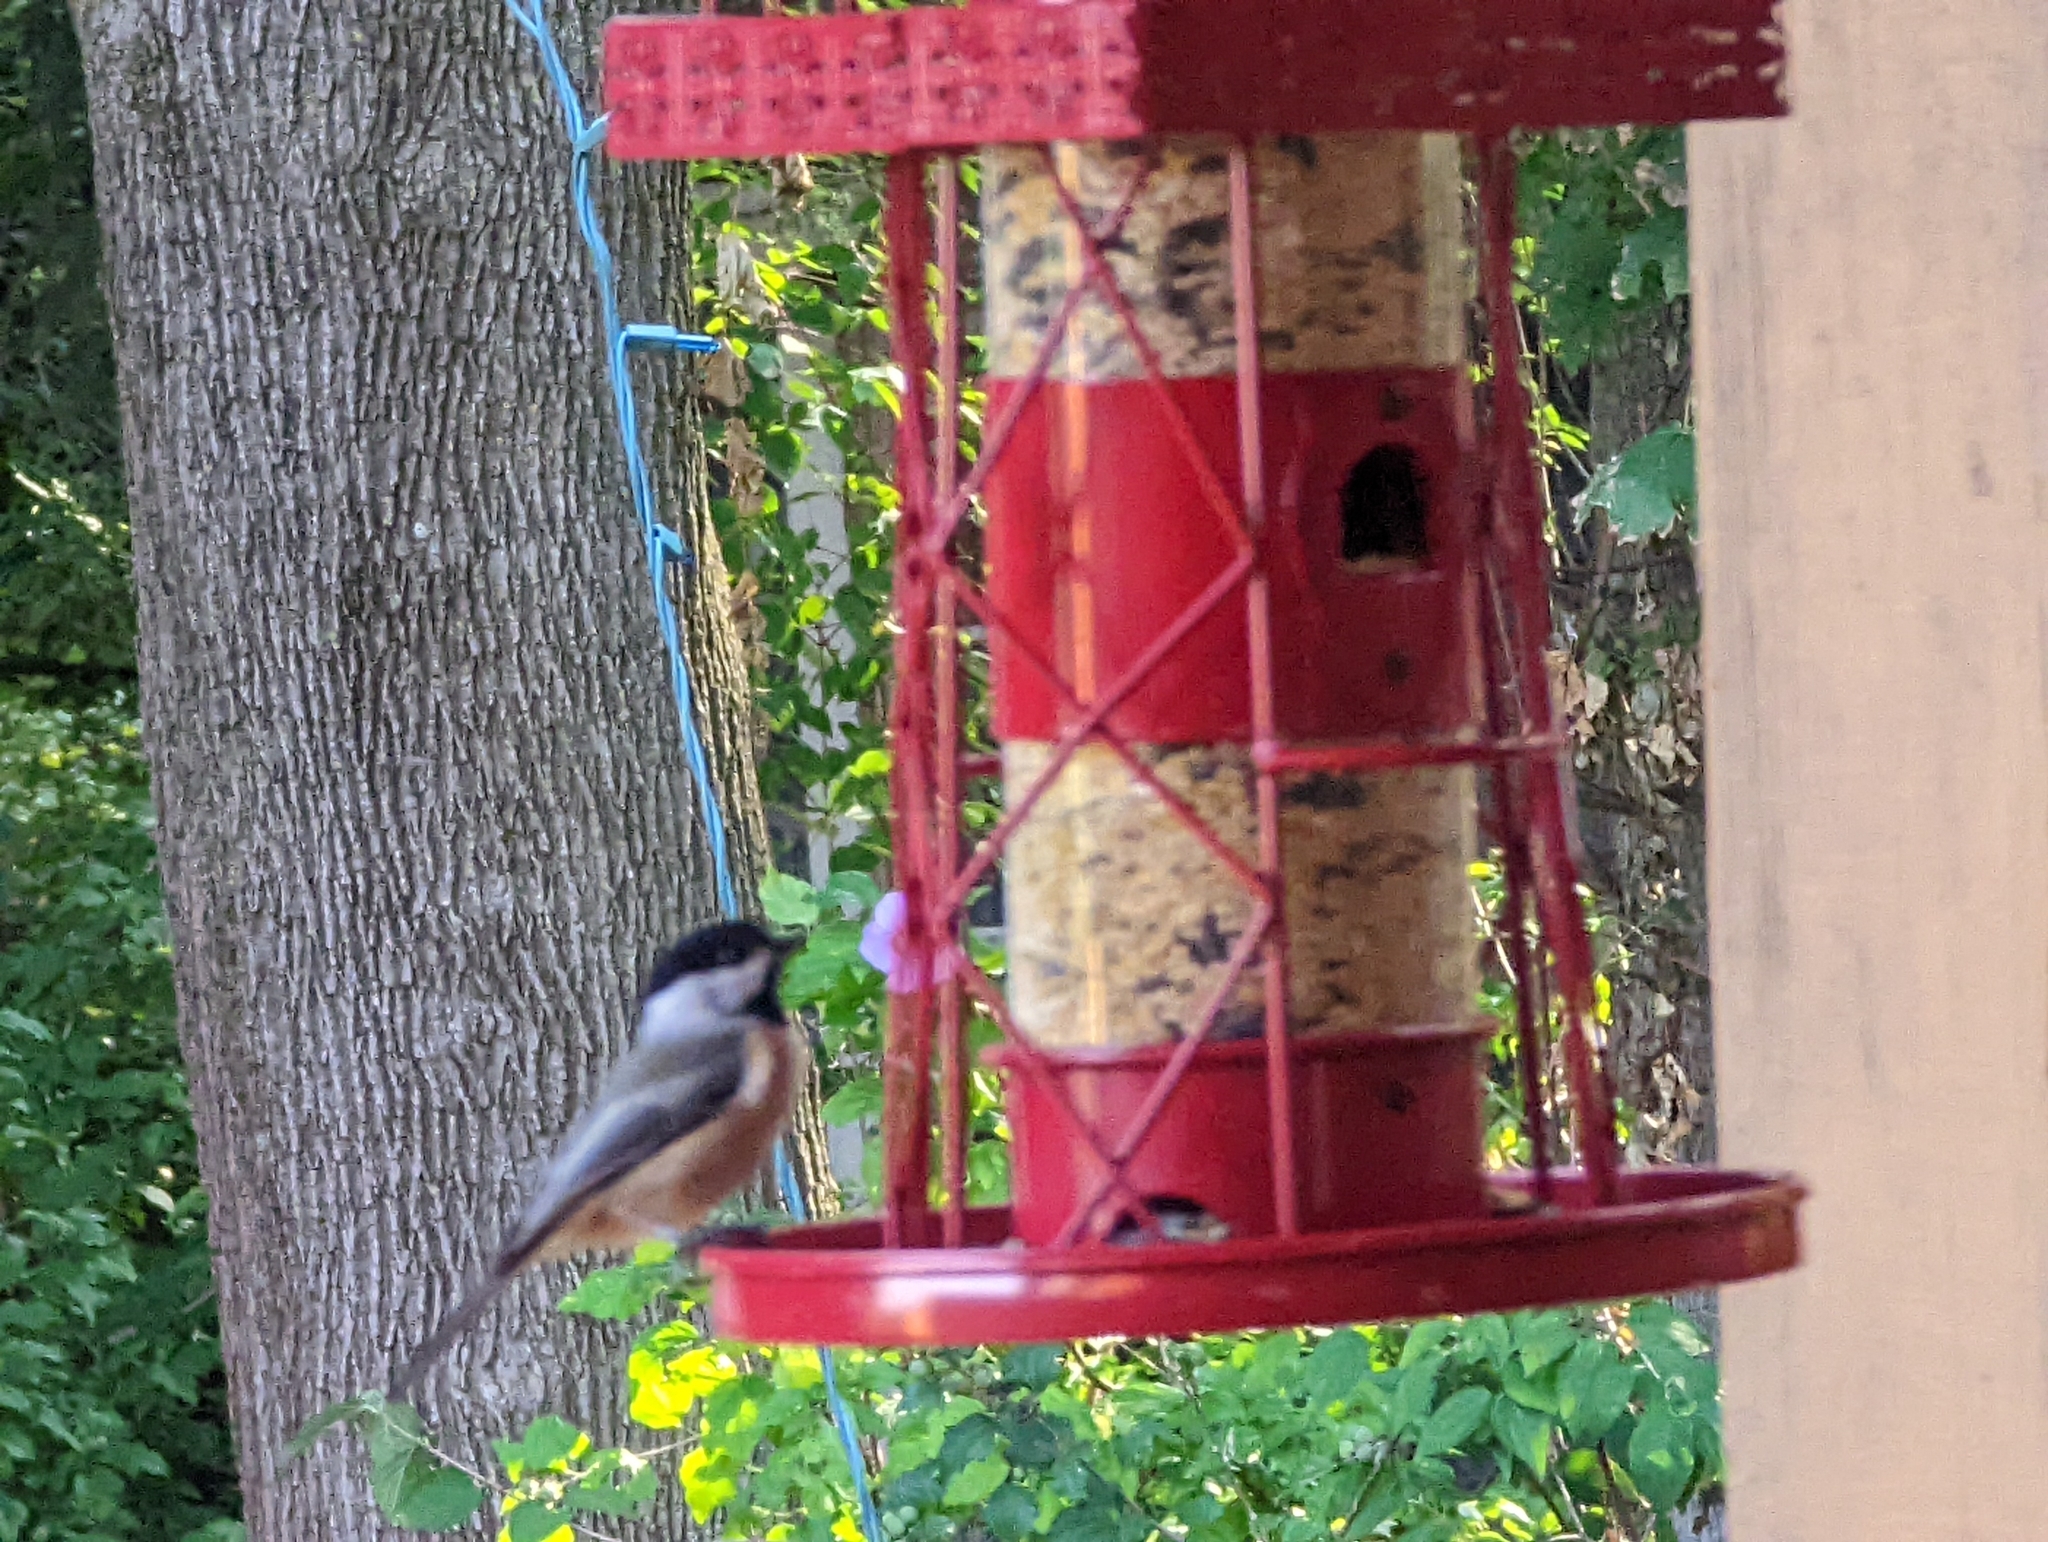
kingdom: Animalia
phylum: Chordata
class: Aves
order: Passeriformes
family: Paridae
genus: Poecile
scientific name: Poecile carolinensis
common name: Carolina chickadee
